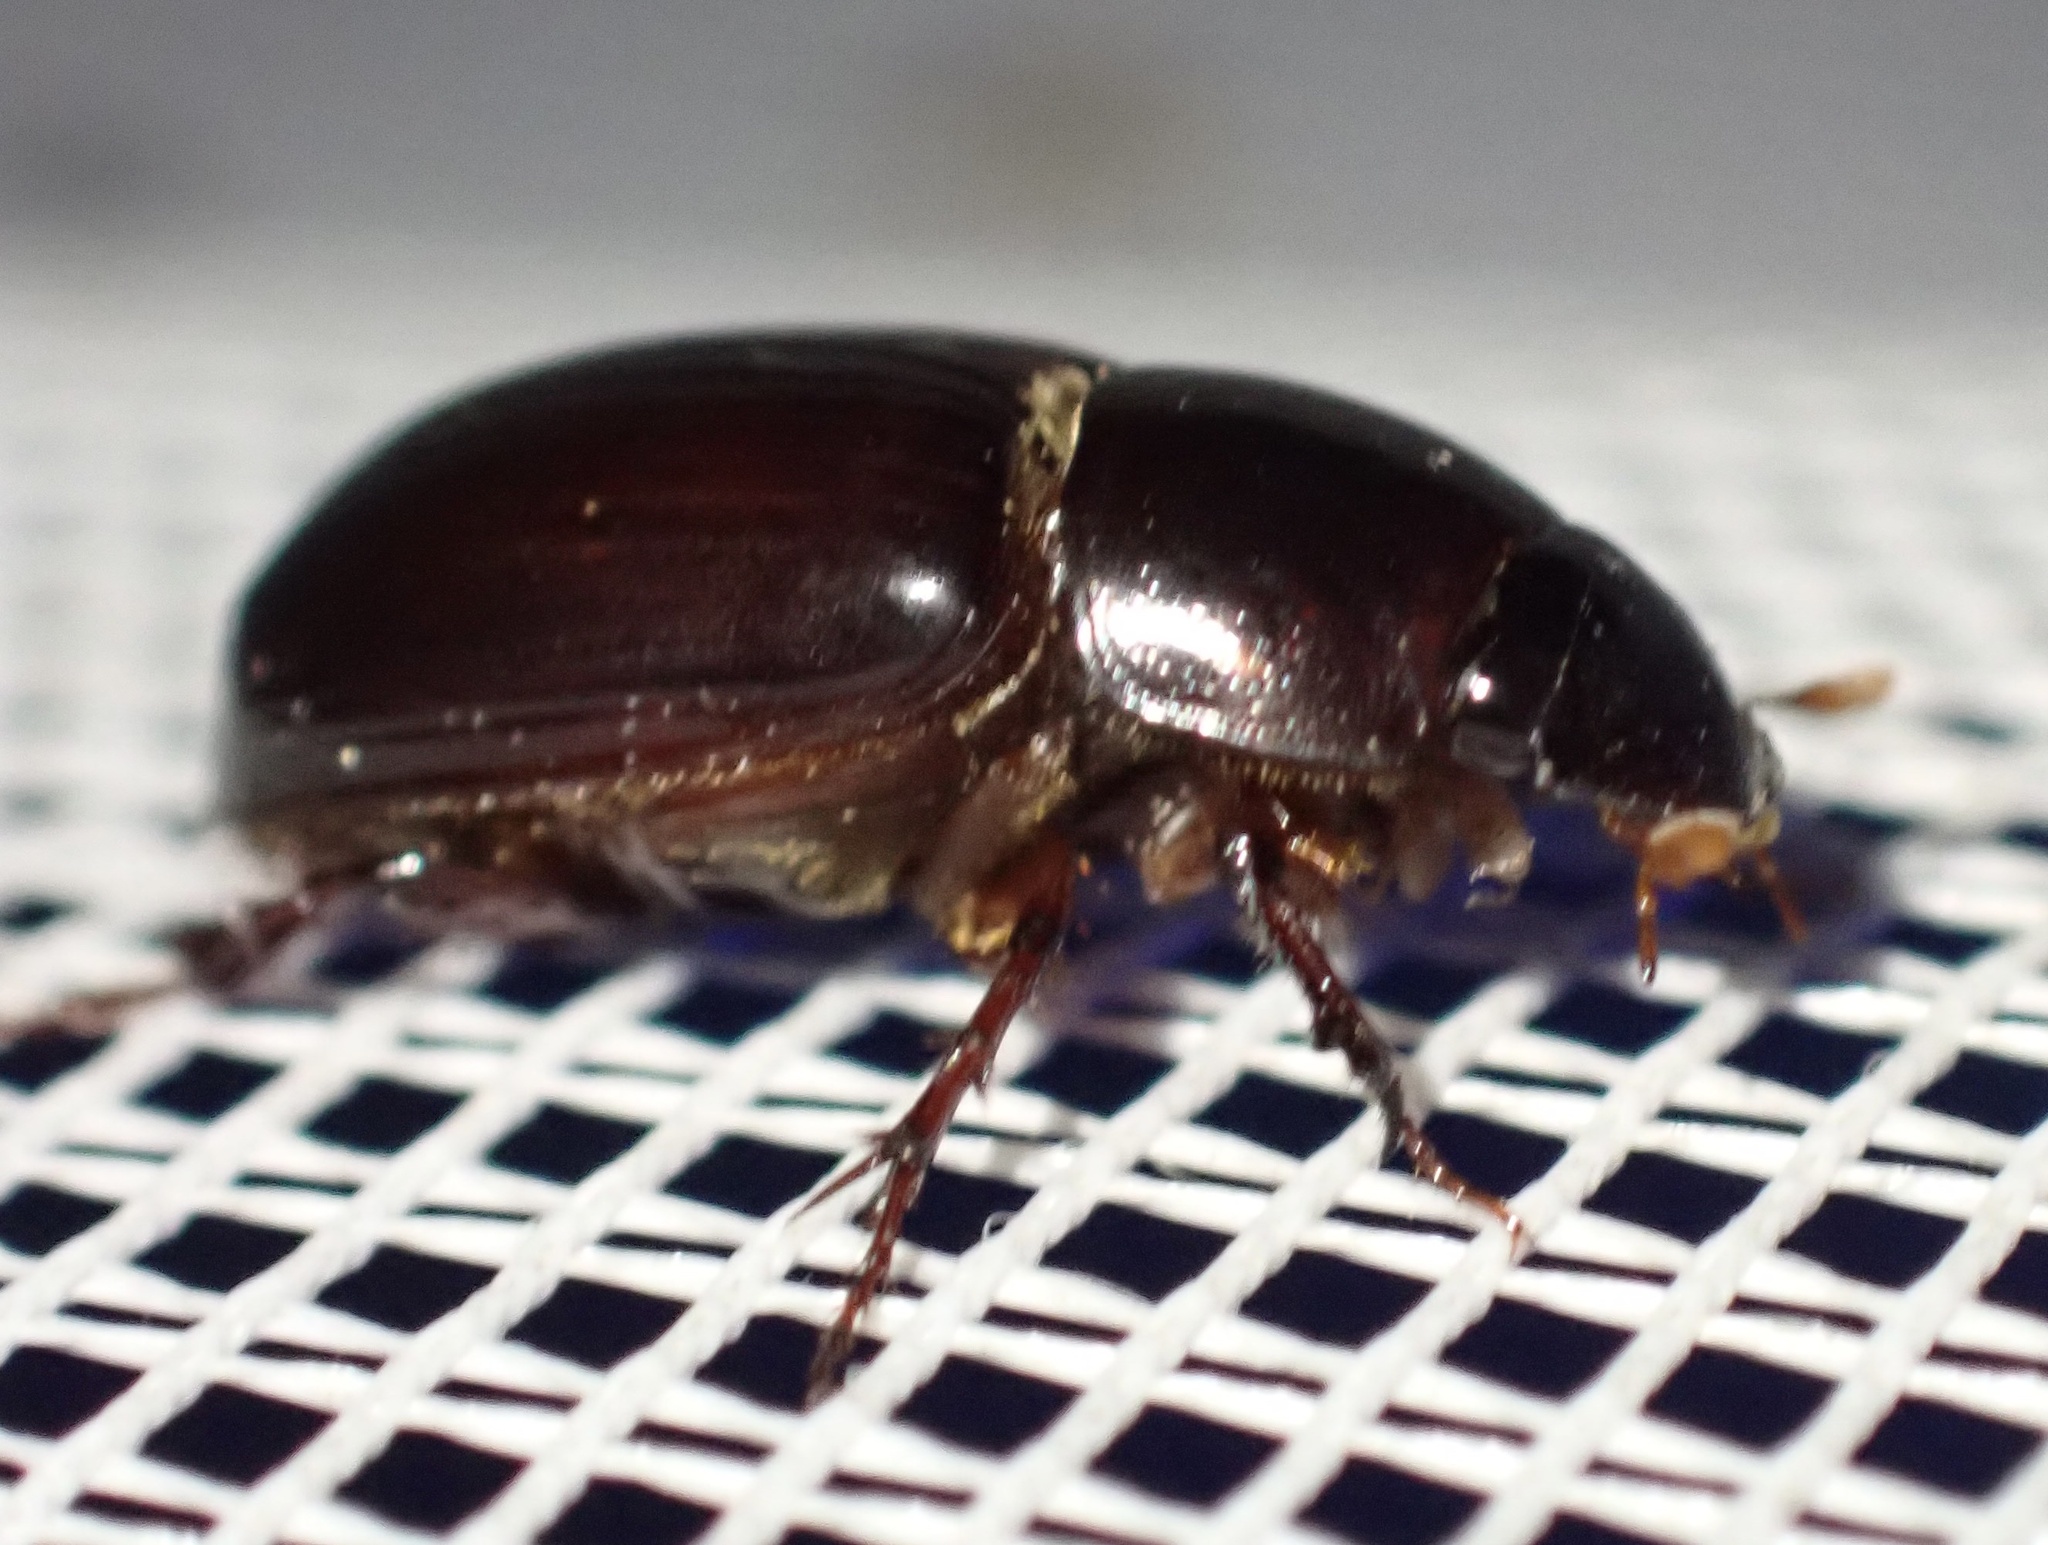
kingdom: Animalia
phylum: Arthropoda
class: Insecta
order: Coleoptera
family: Scarabaeidae
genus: Acrossus
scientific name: Acrossus rufipes
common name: Night-flying dung beetle
